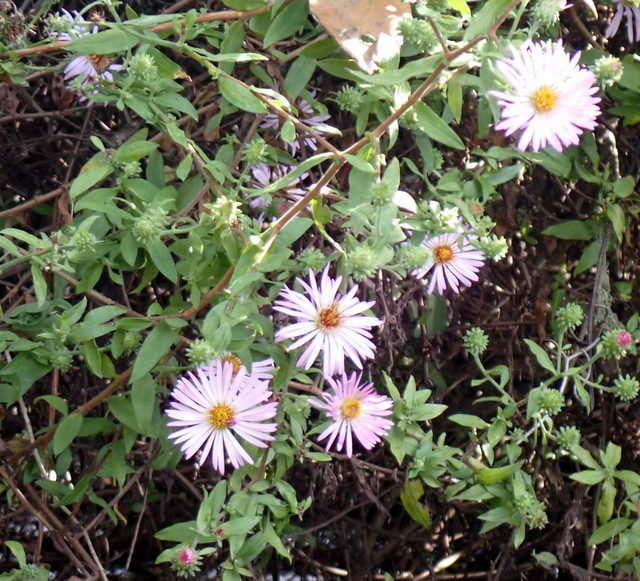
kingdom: Plantae
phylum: Tracheophyta
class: Magnoliopsida
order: Asterales
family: Asteraceae
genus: Ampelaster
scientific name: Ampelaster carolinianus
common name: Climbing aster
